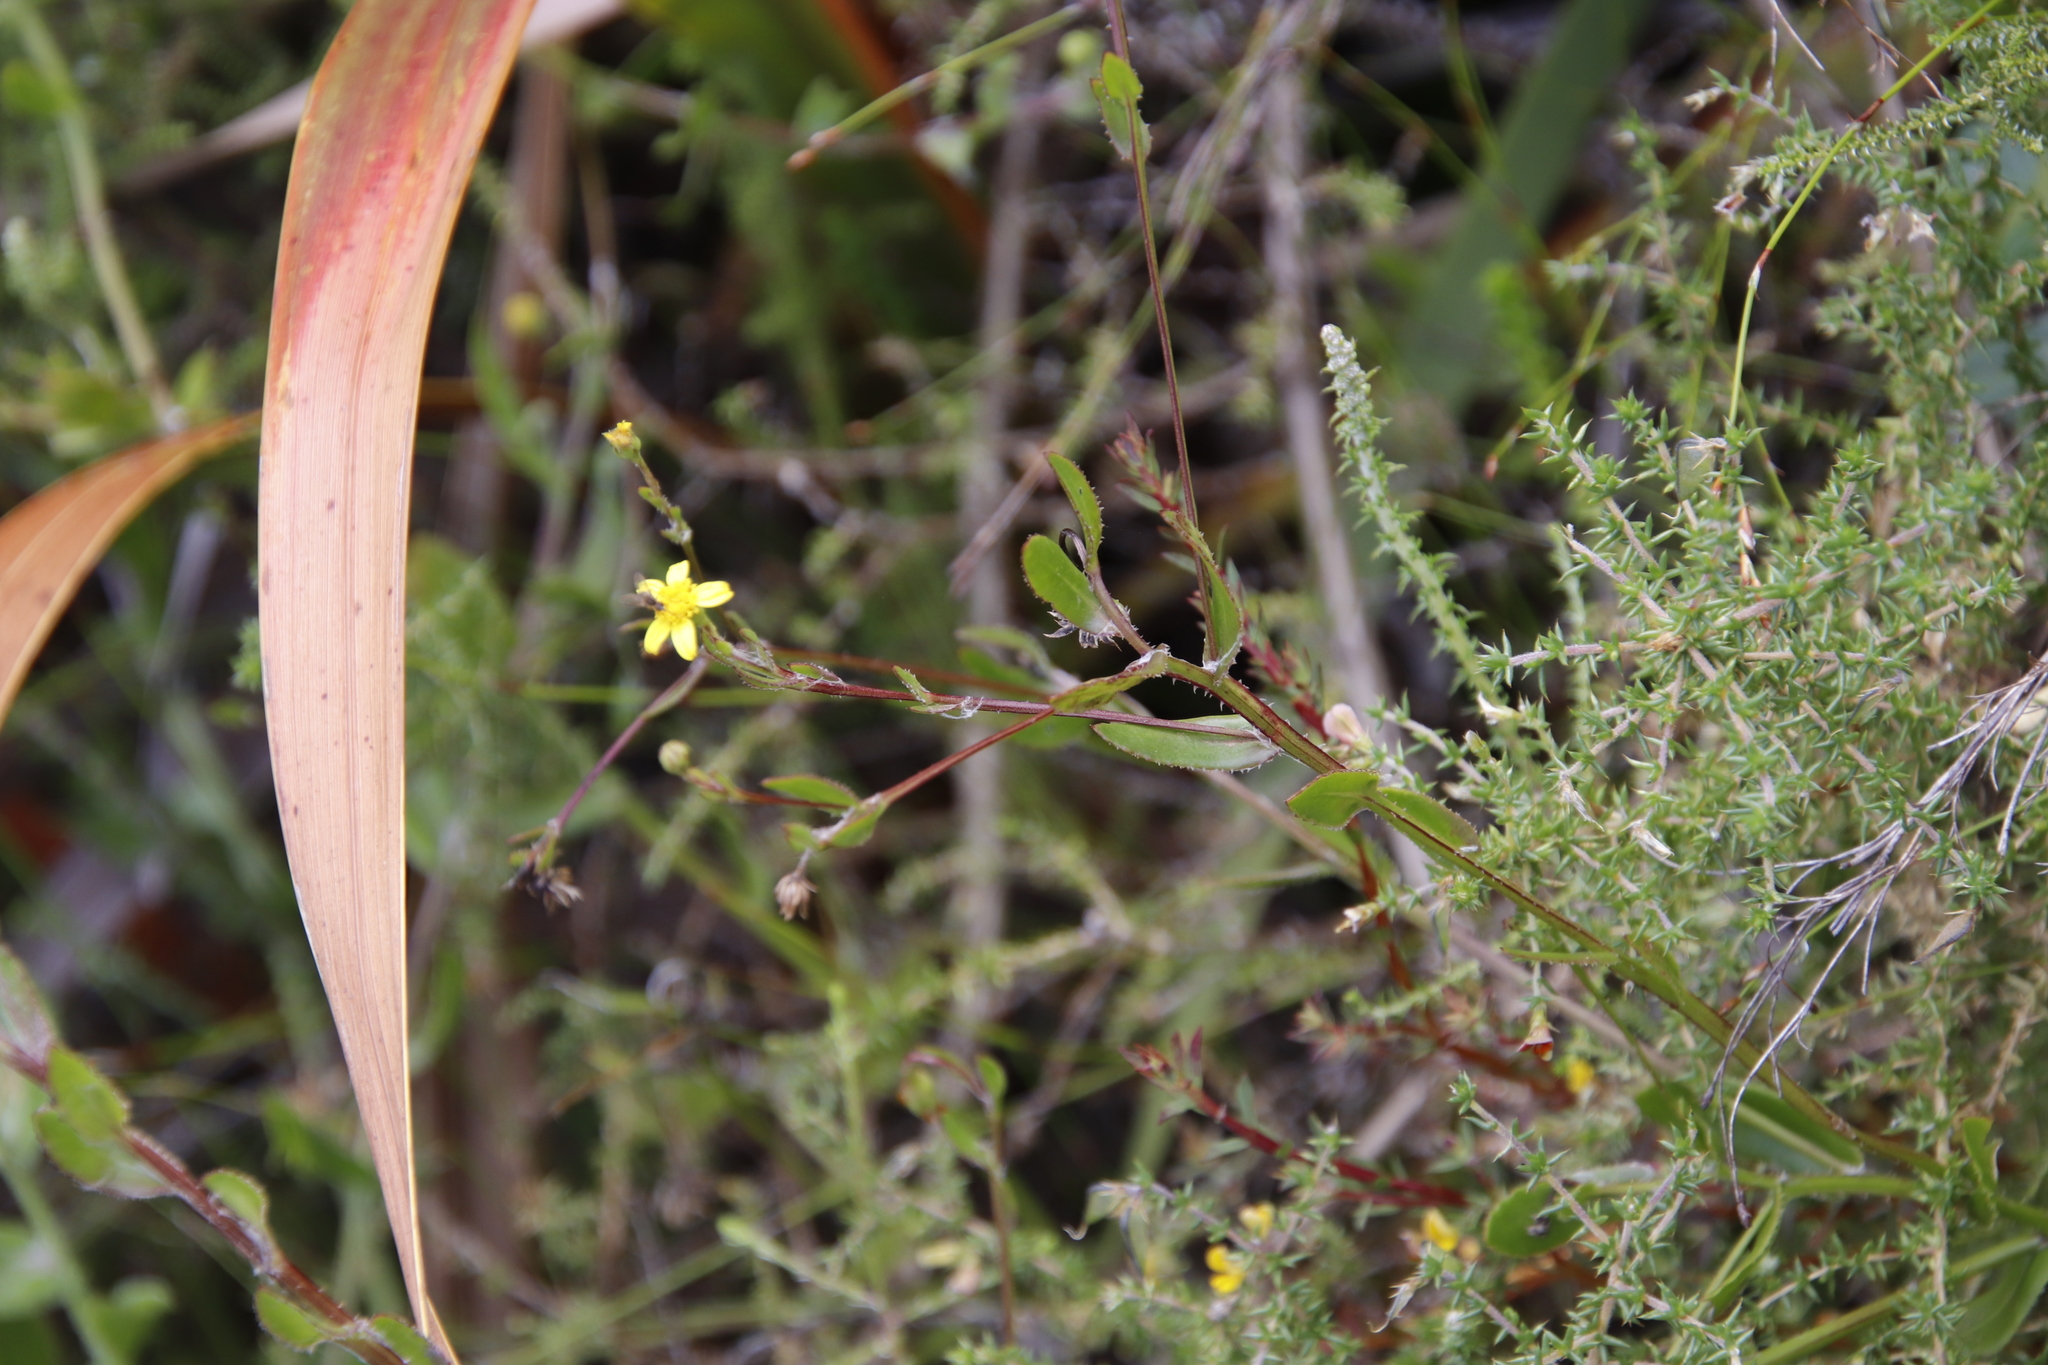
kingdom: Plantae
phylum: Tracheophyta
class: Magnoliopsida
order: Asterales
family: Asteraceae
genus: Osteospermum
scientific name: Osteospermum ciliatum
